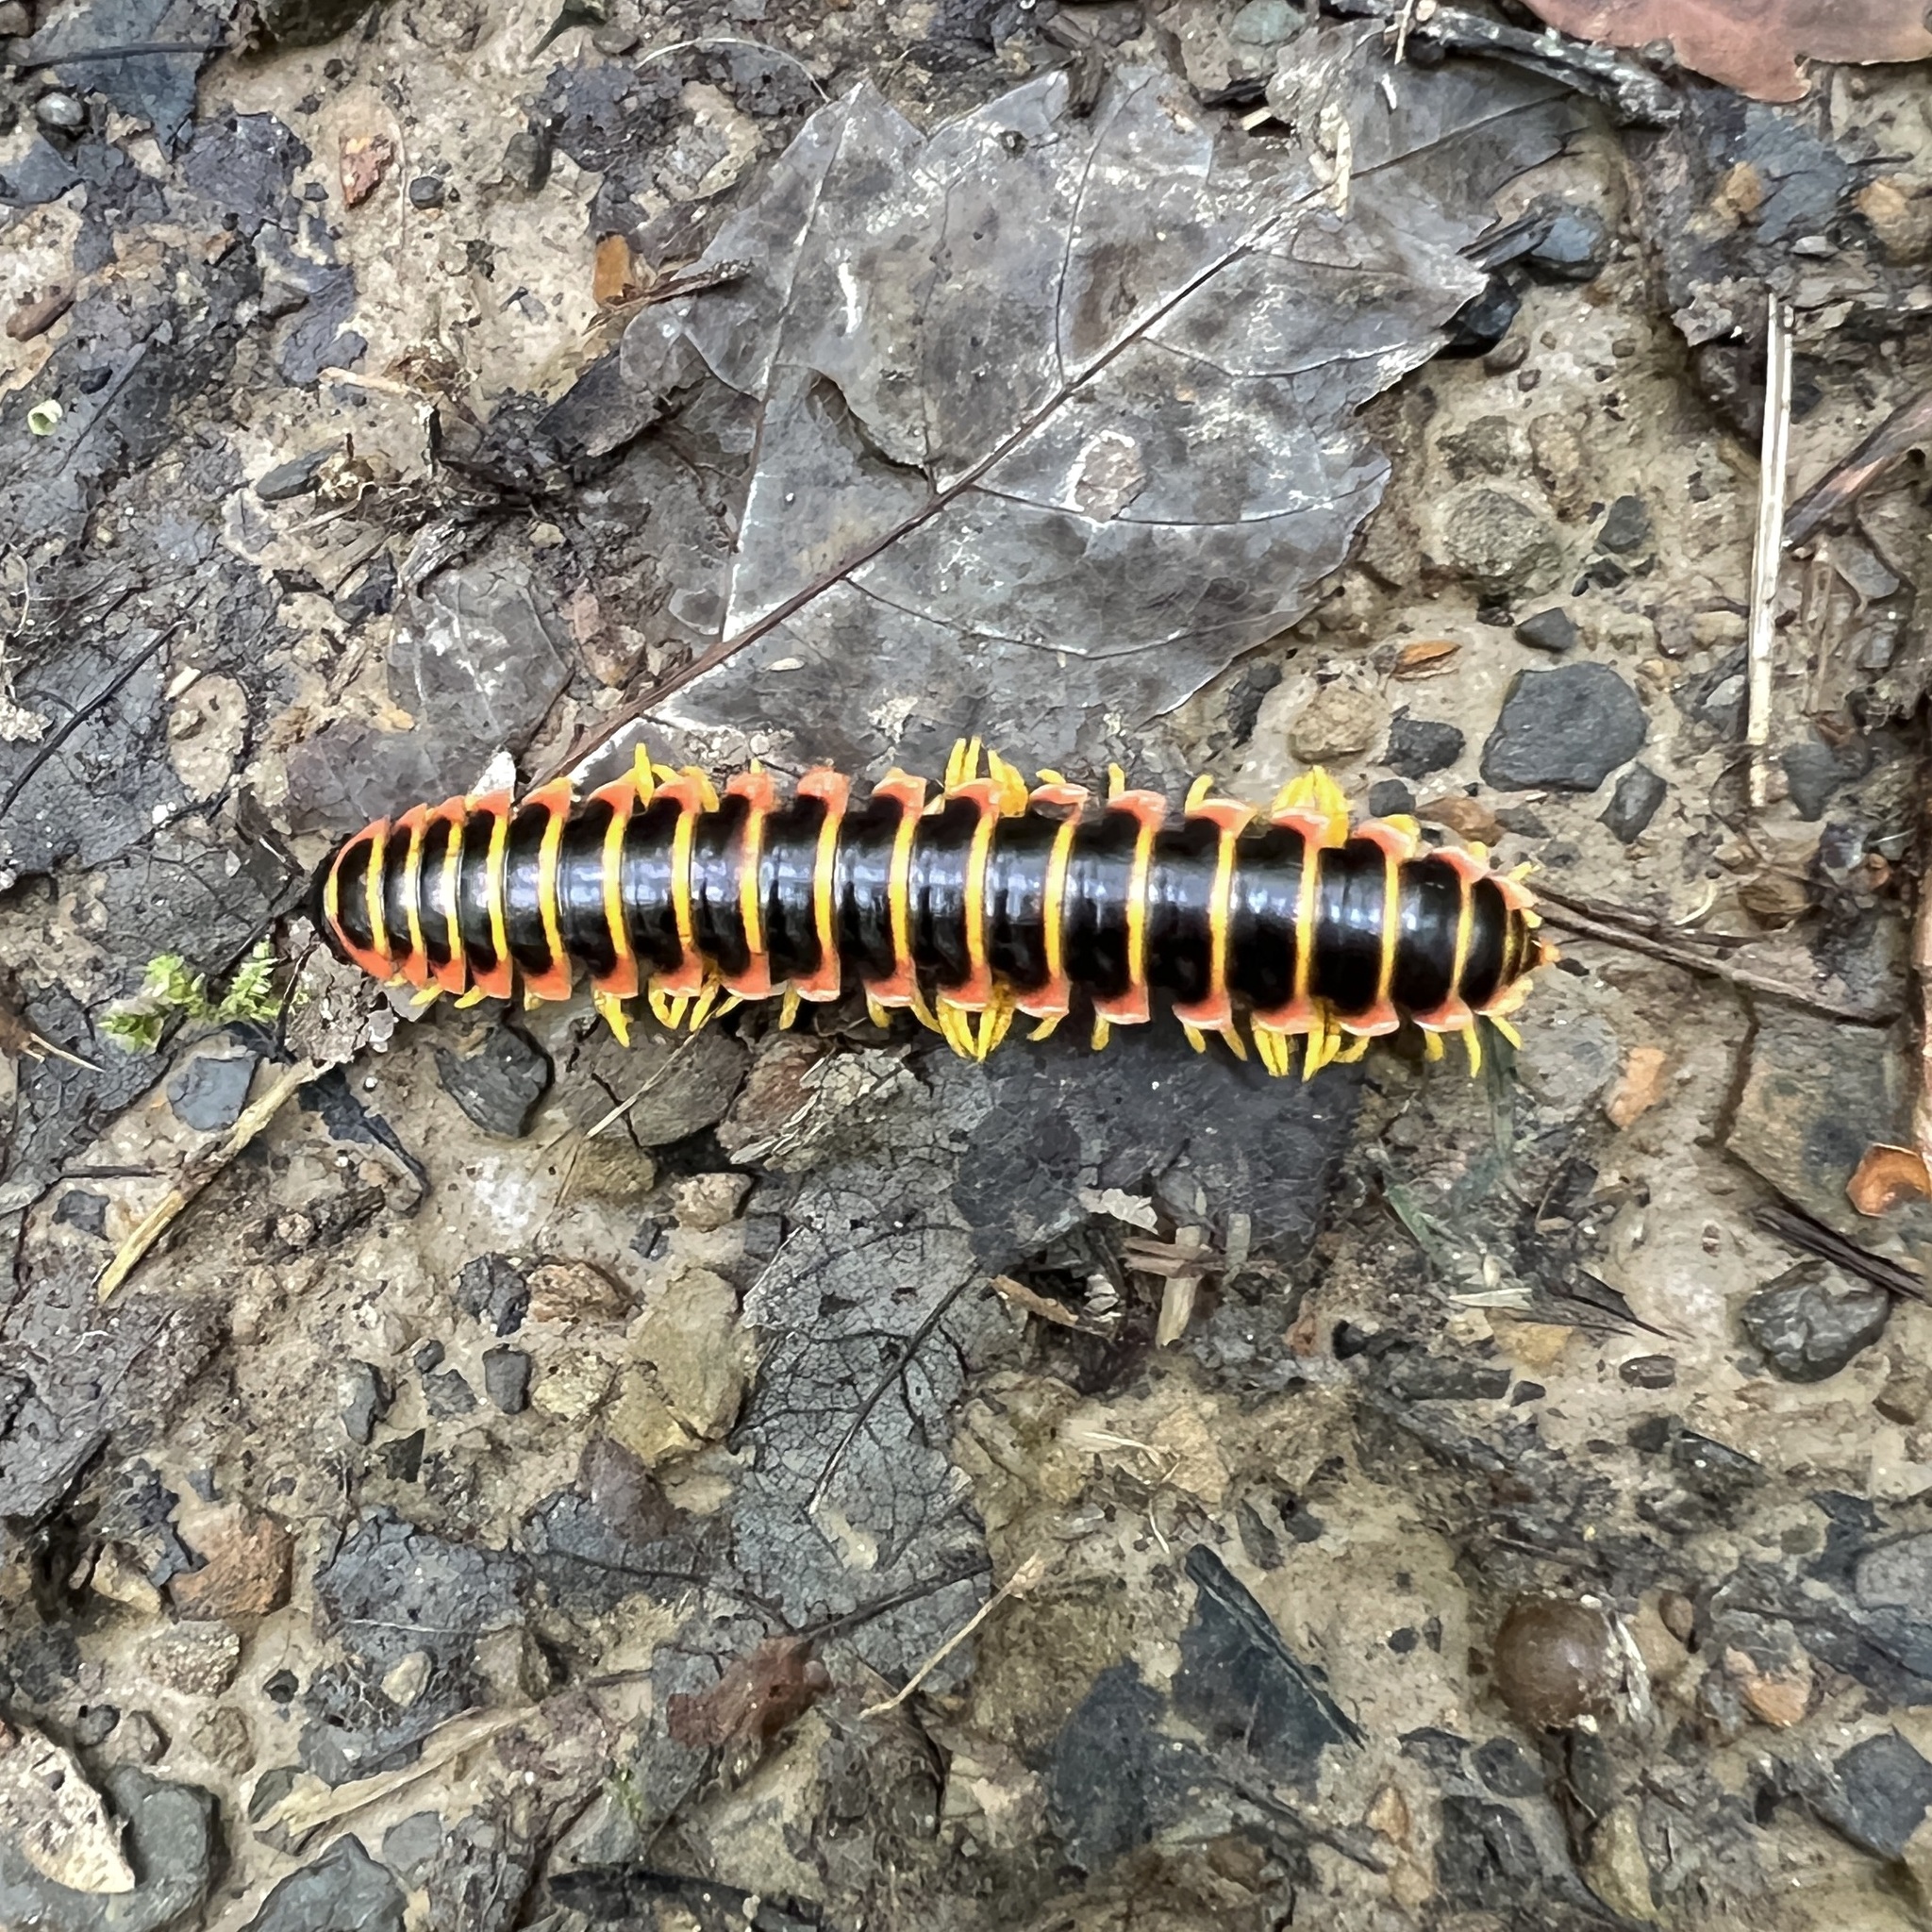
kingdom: Animalia
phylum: Arthropoda
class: Diplopoda
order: Polydesmida
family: Xystodesmidae
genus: Apheloria
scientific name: Apheloria virginiensis
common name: Black-and-gold flat millipede
